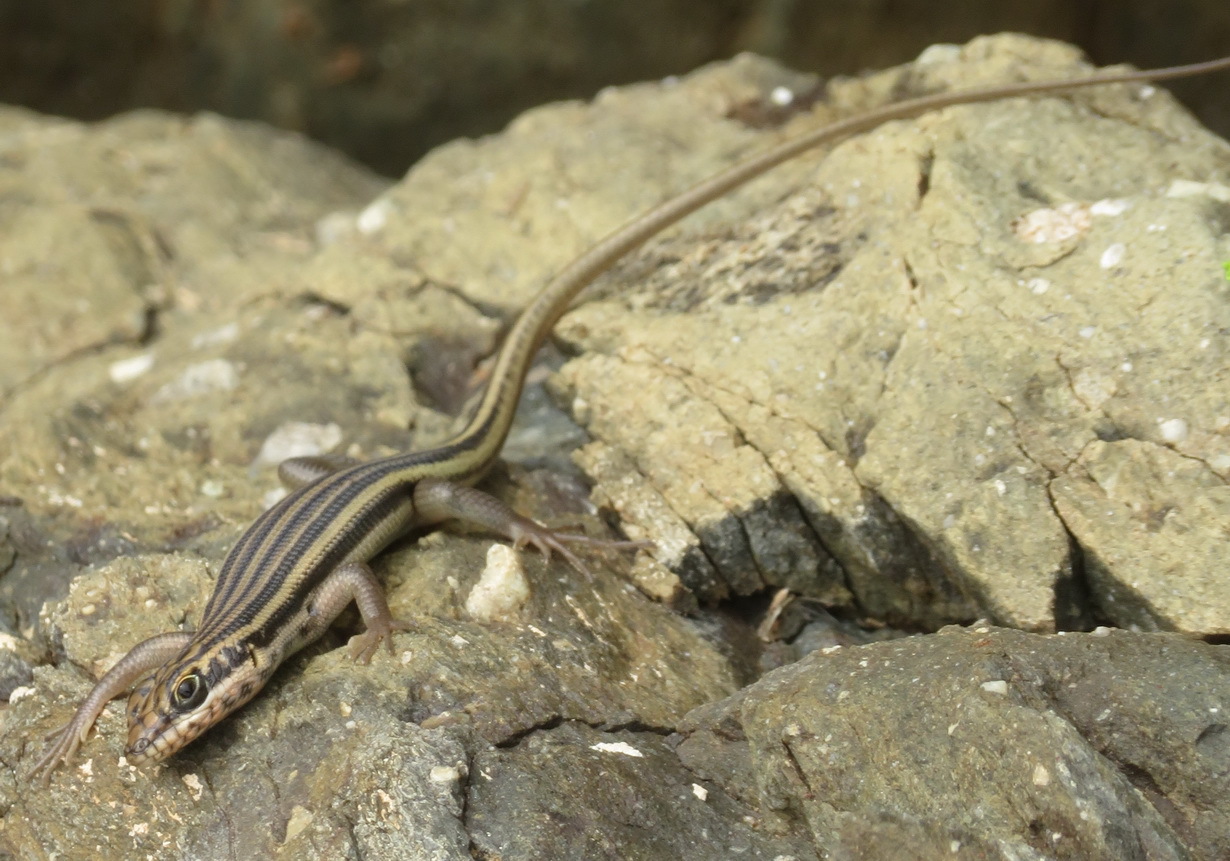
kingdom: Animalia
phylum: Chordata
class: Squamata
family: Scincidae
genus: Trachylepis
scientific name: Trachylepis sulcata
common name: Western rock skink
